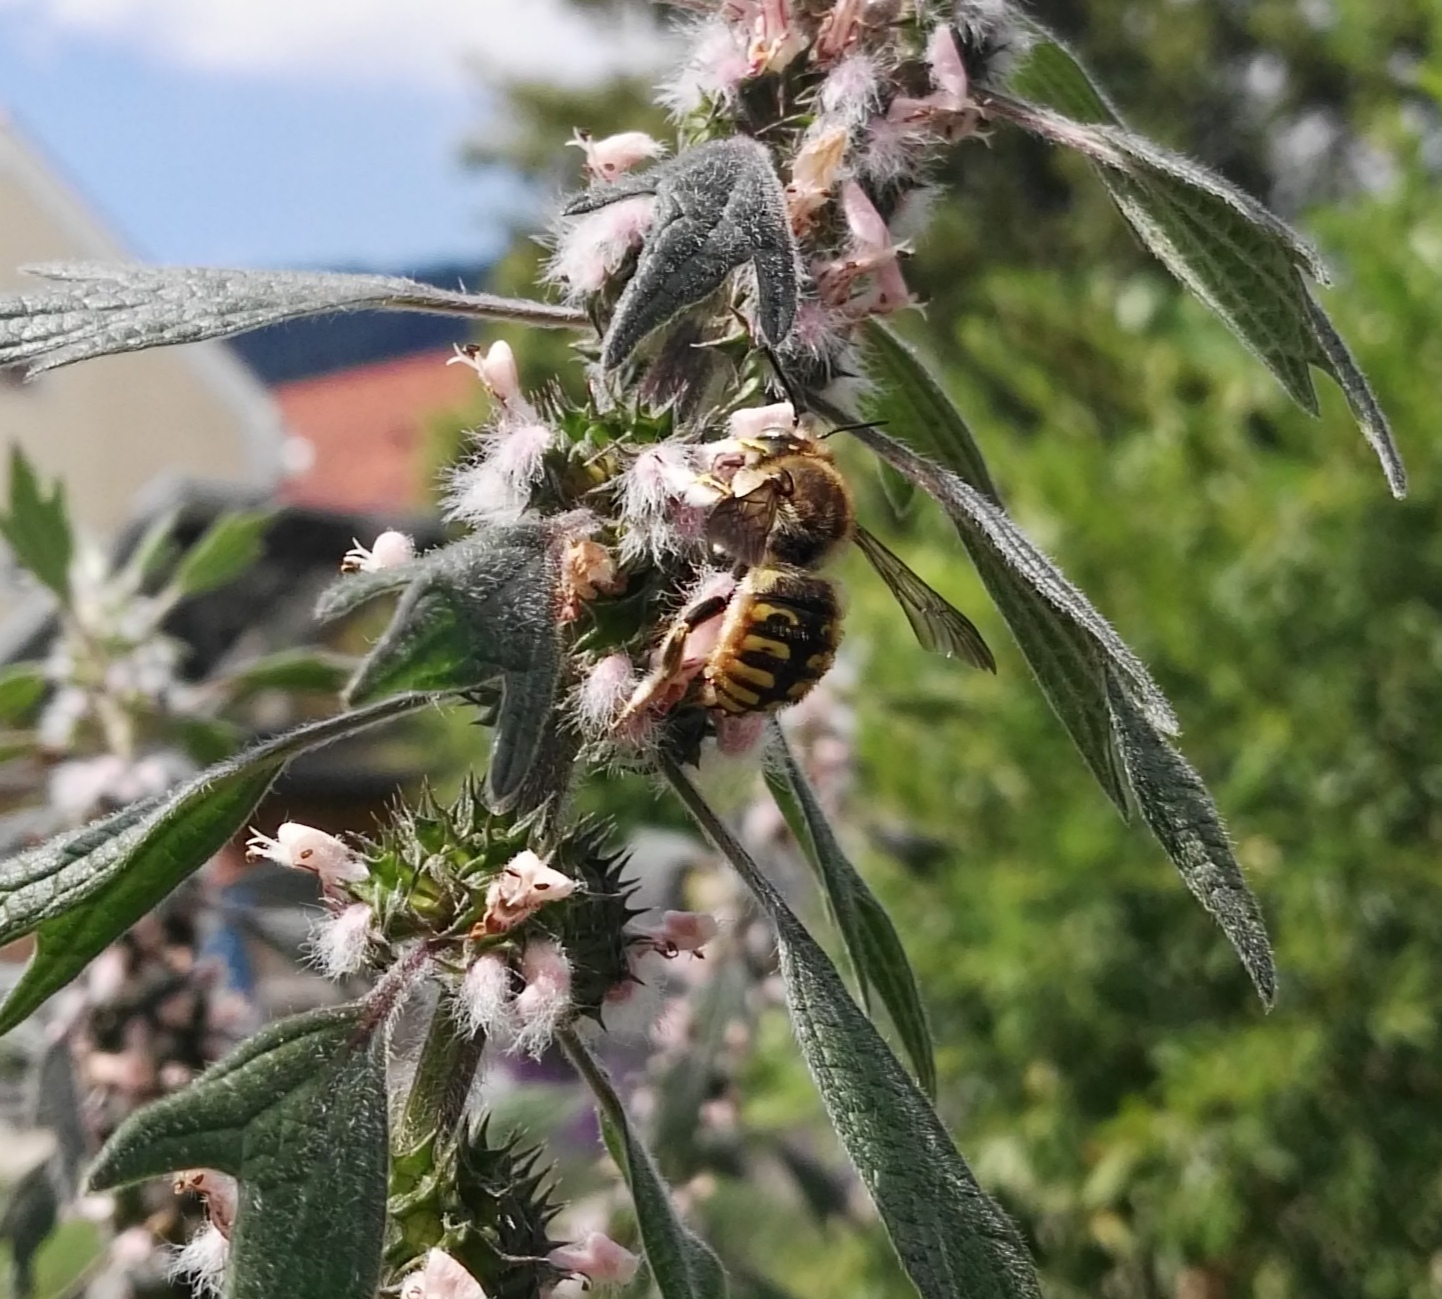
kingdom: Animalia
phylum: Arthropoda
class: Insecta
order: Hymenoptera
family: Megachilidae
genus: Anthidium
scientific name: Anthidium manicatum
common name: Wool carder bee
